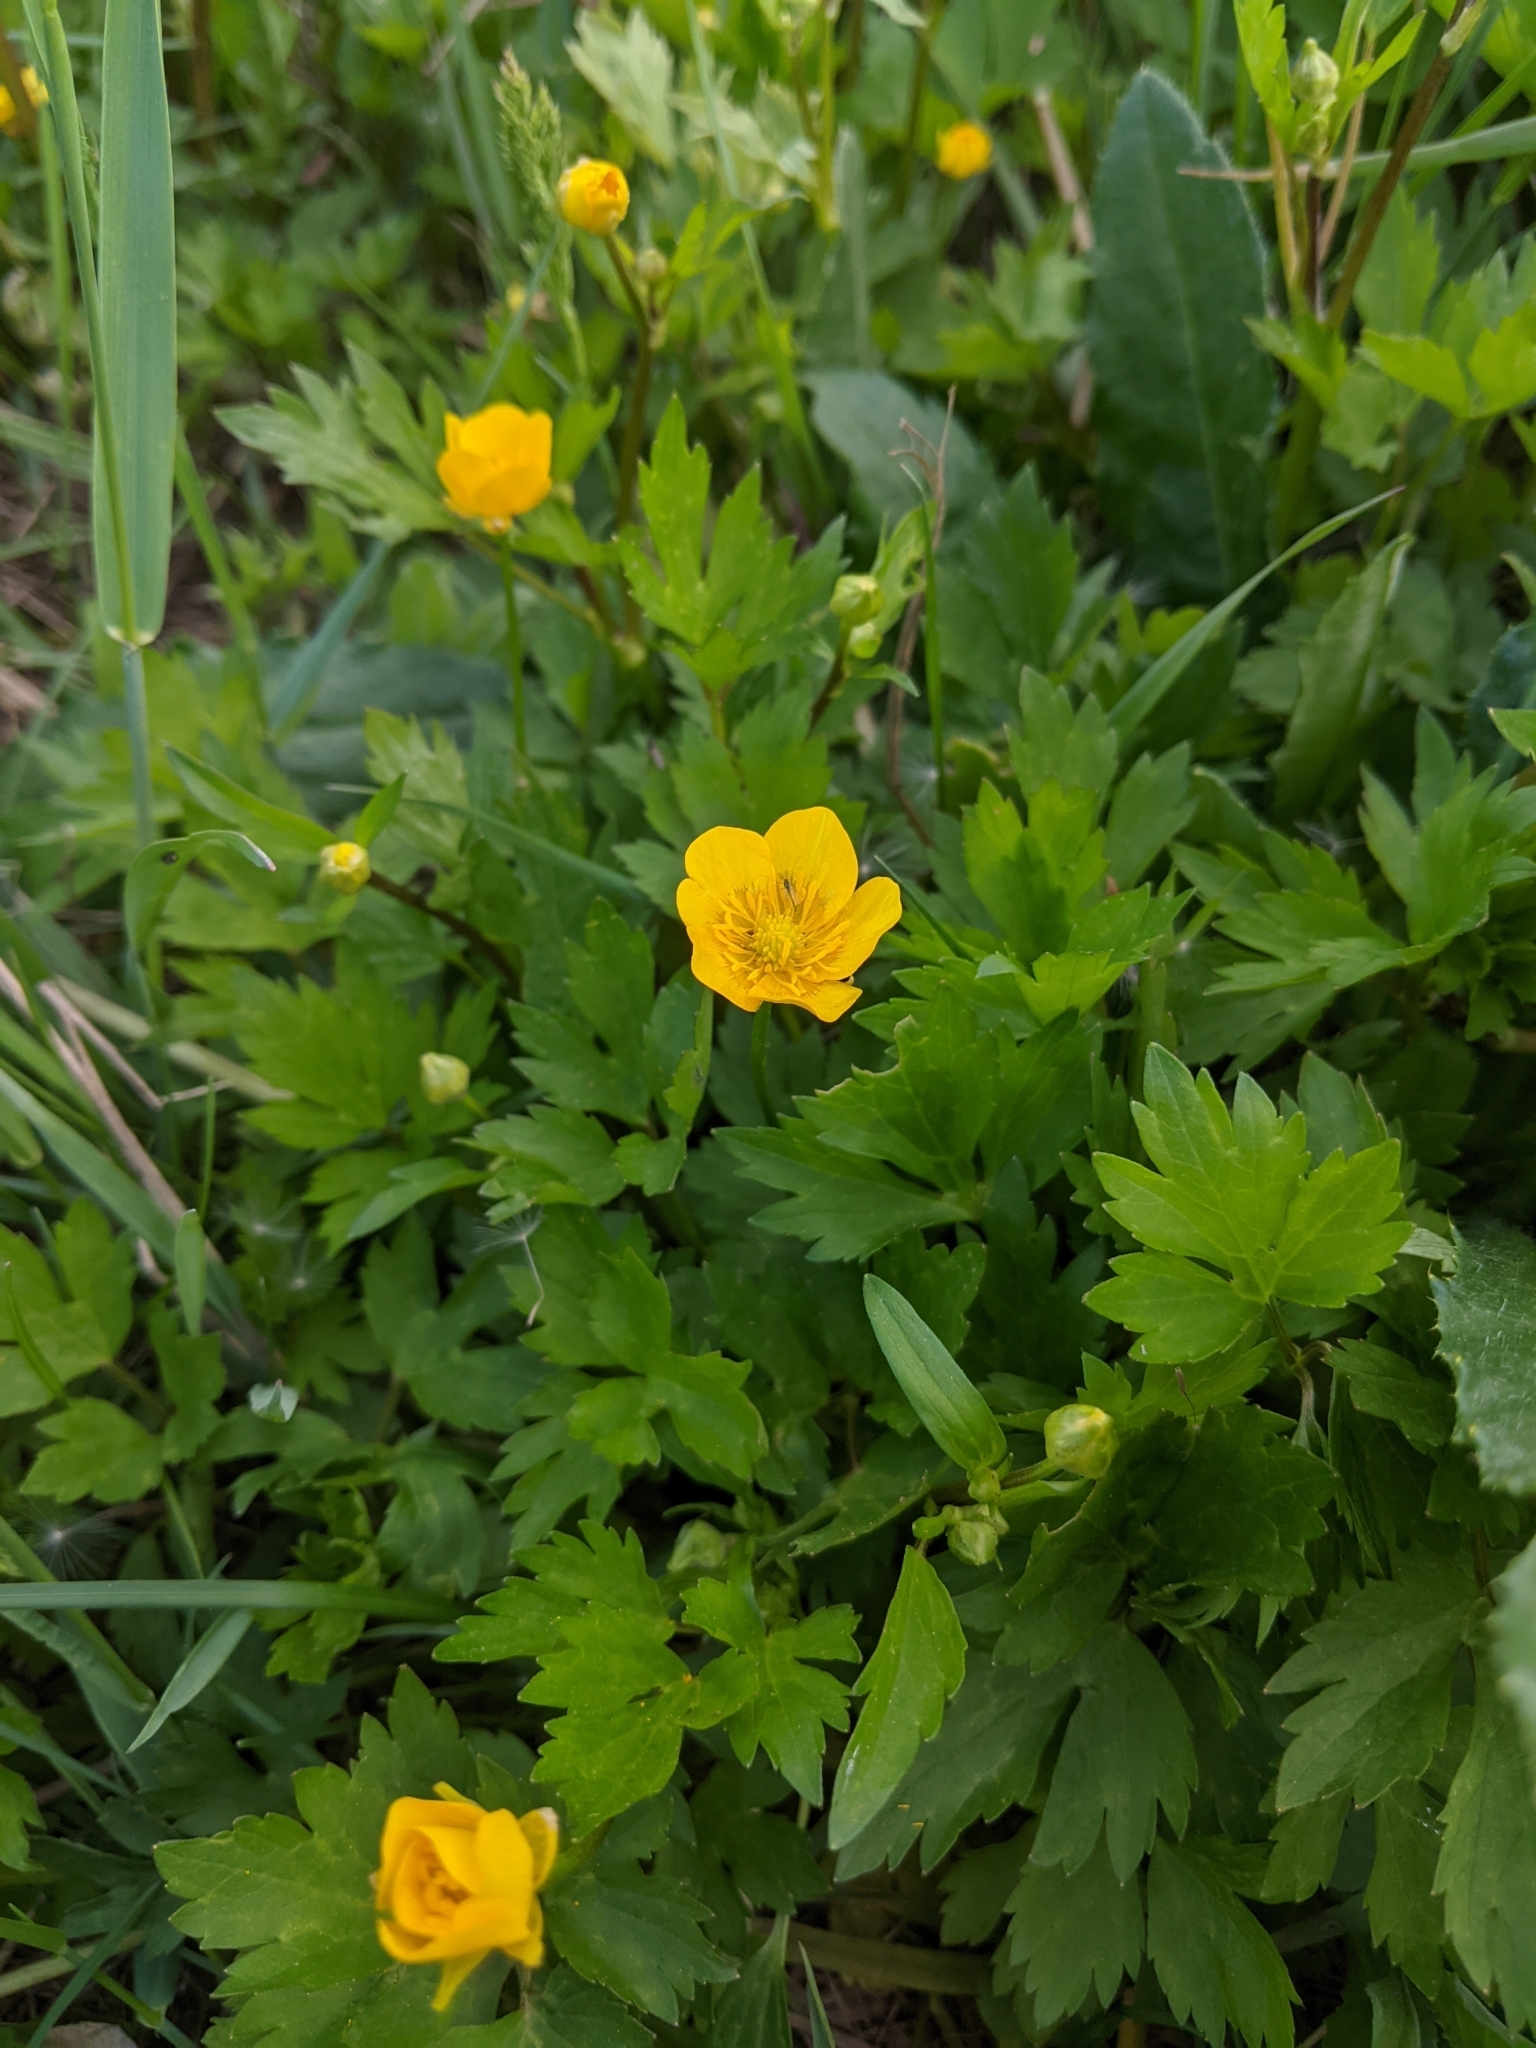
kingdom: Plantae
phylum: Tracheophyta
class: Magnoliopsida
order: Ranunculales
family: Ranunculaceae
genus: Ranunculus
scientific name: Ranunculus repens
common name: Creeping buttercup
